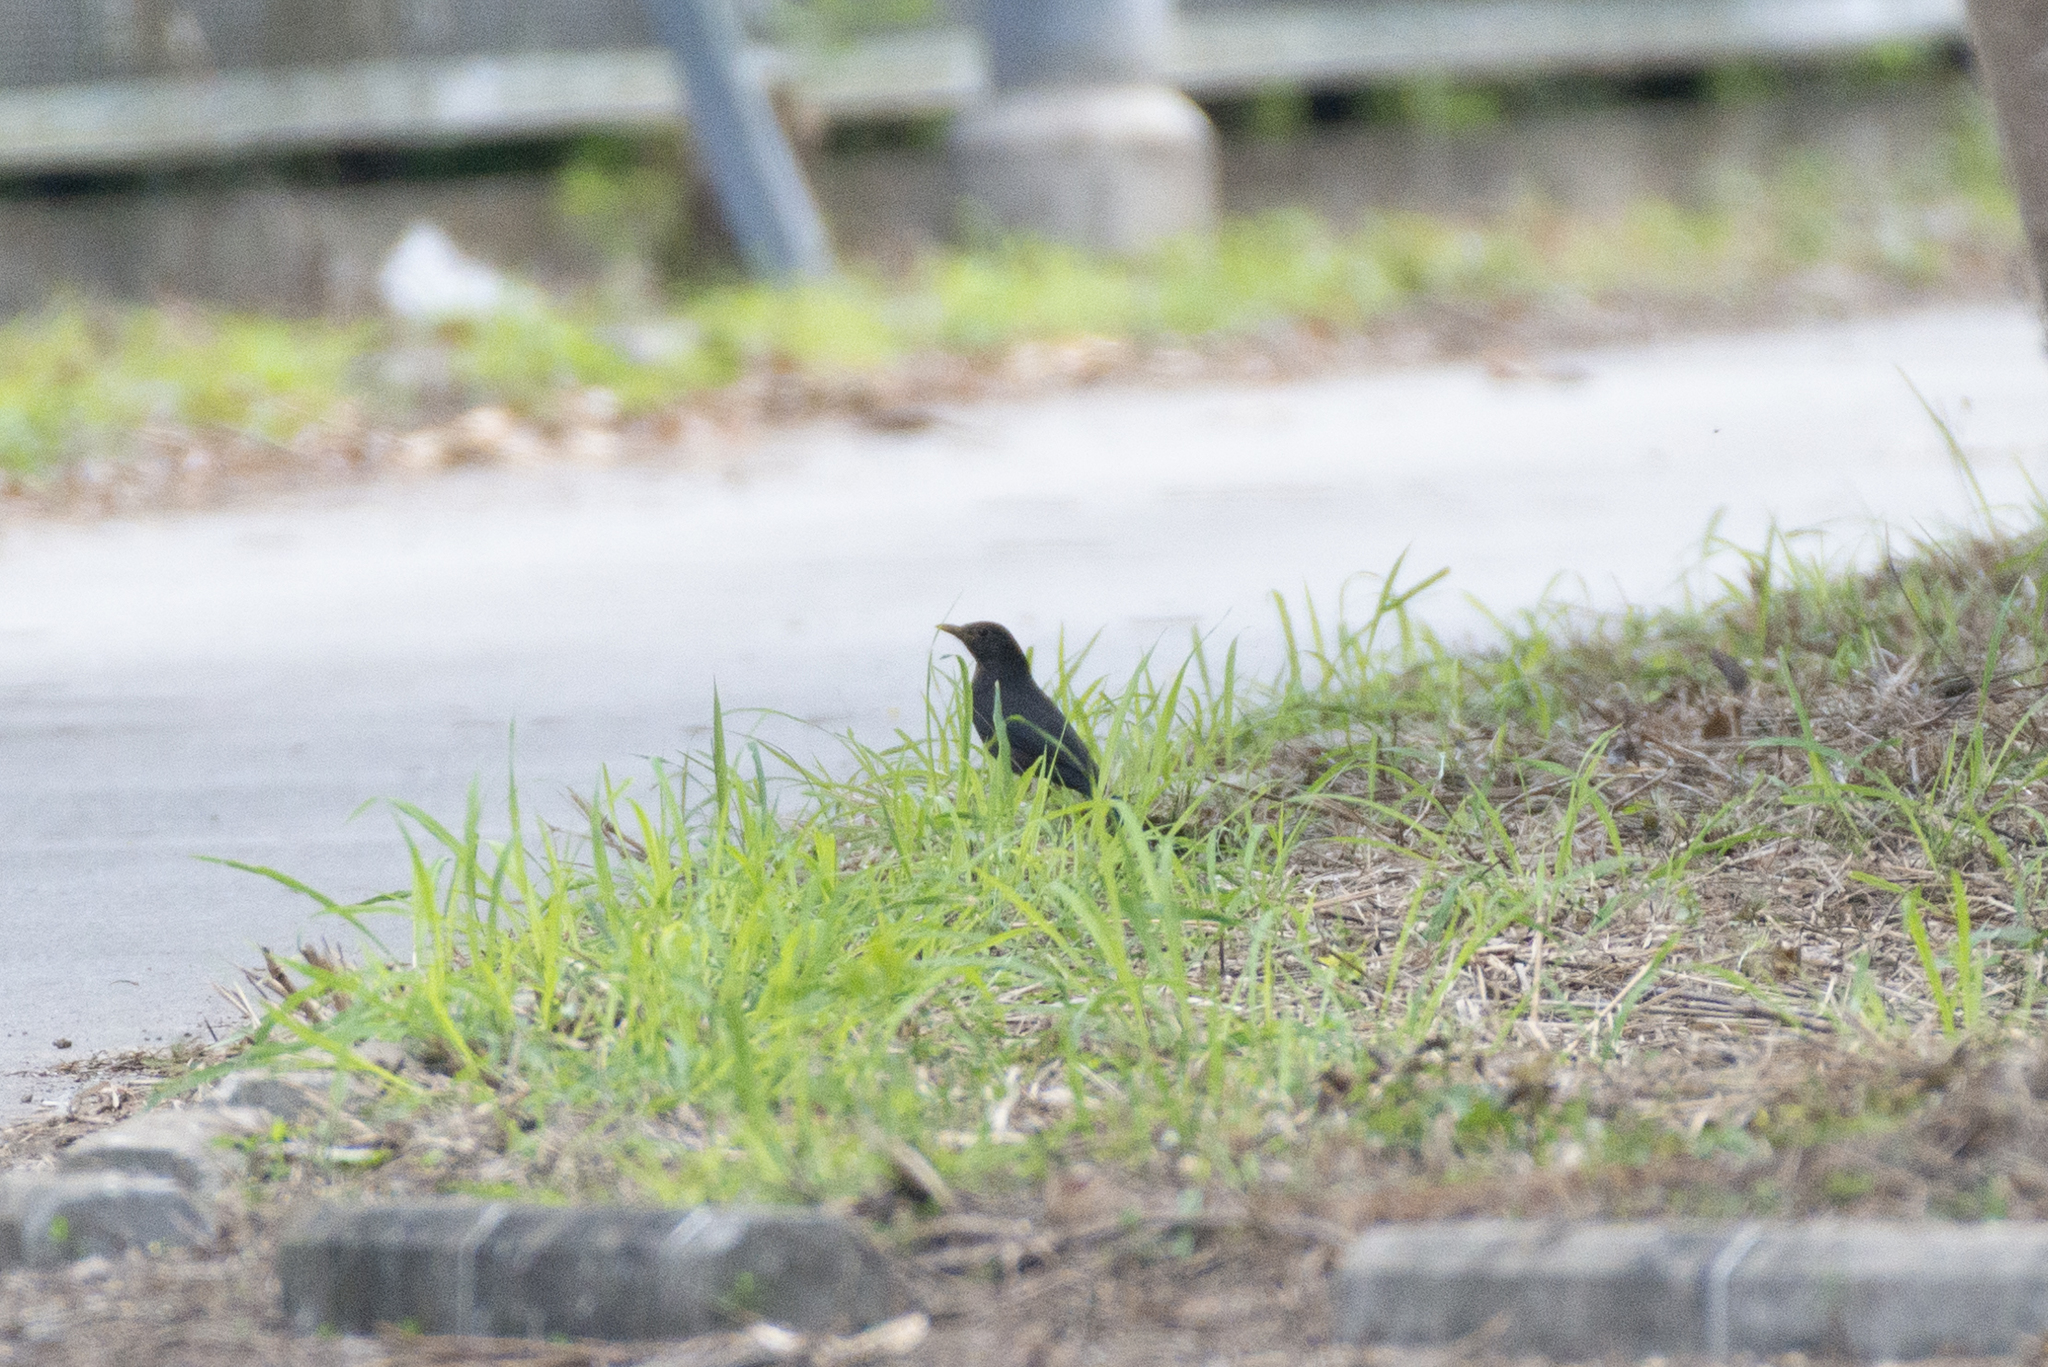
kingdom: Animalia
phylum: Chordata
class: Aves
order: Passeriformes
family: Turdidae
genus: Turdus
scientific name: Turdus mandarinus
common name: Chinese blackbird
